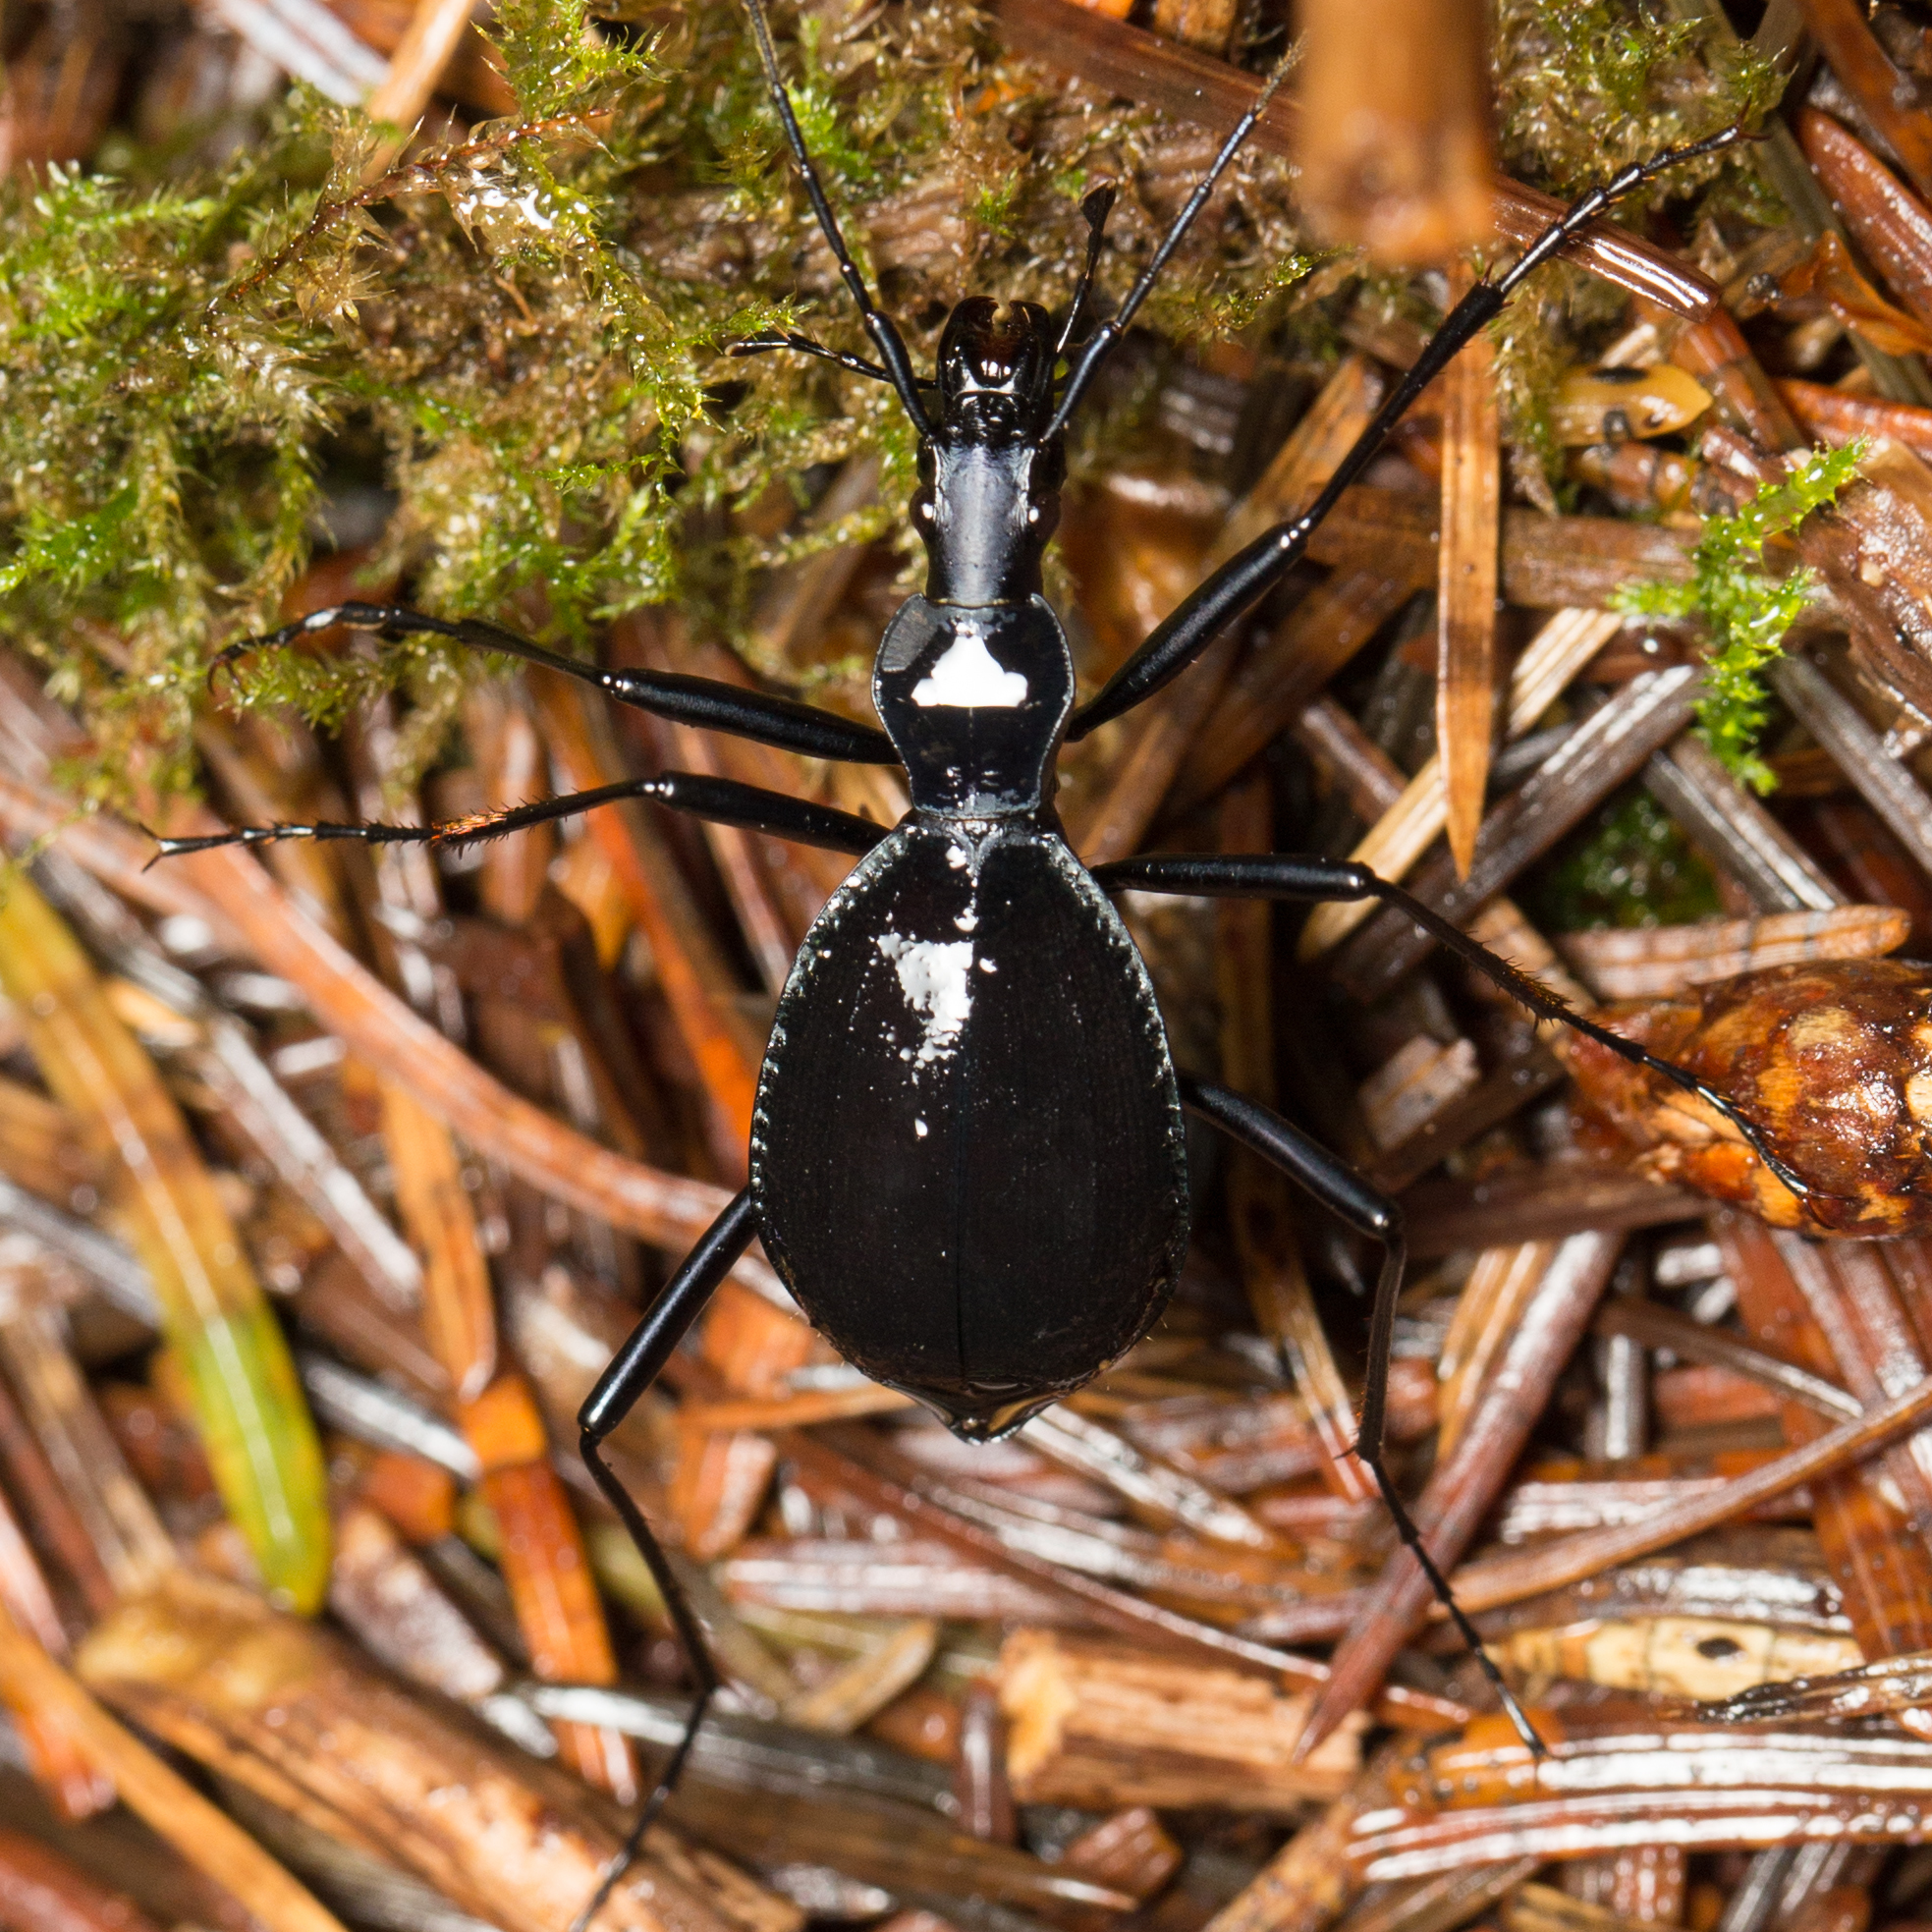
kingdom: Animalia
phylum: Arthropoda
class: Insecta
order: Coleoptera
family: Carabidae
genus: Scaphinotus
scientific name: Scaphinotus velutinus
